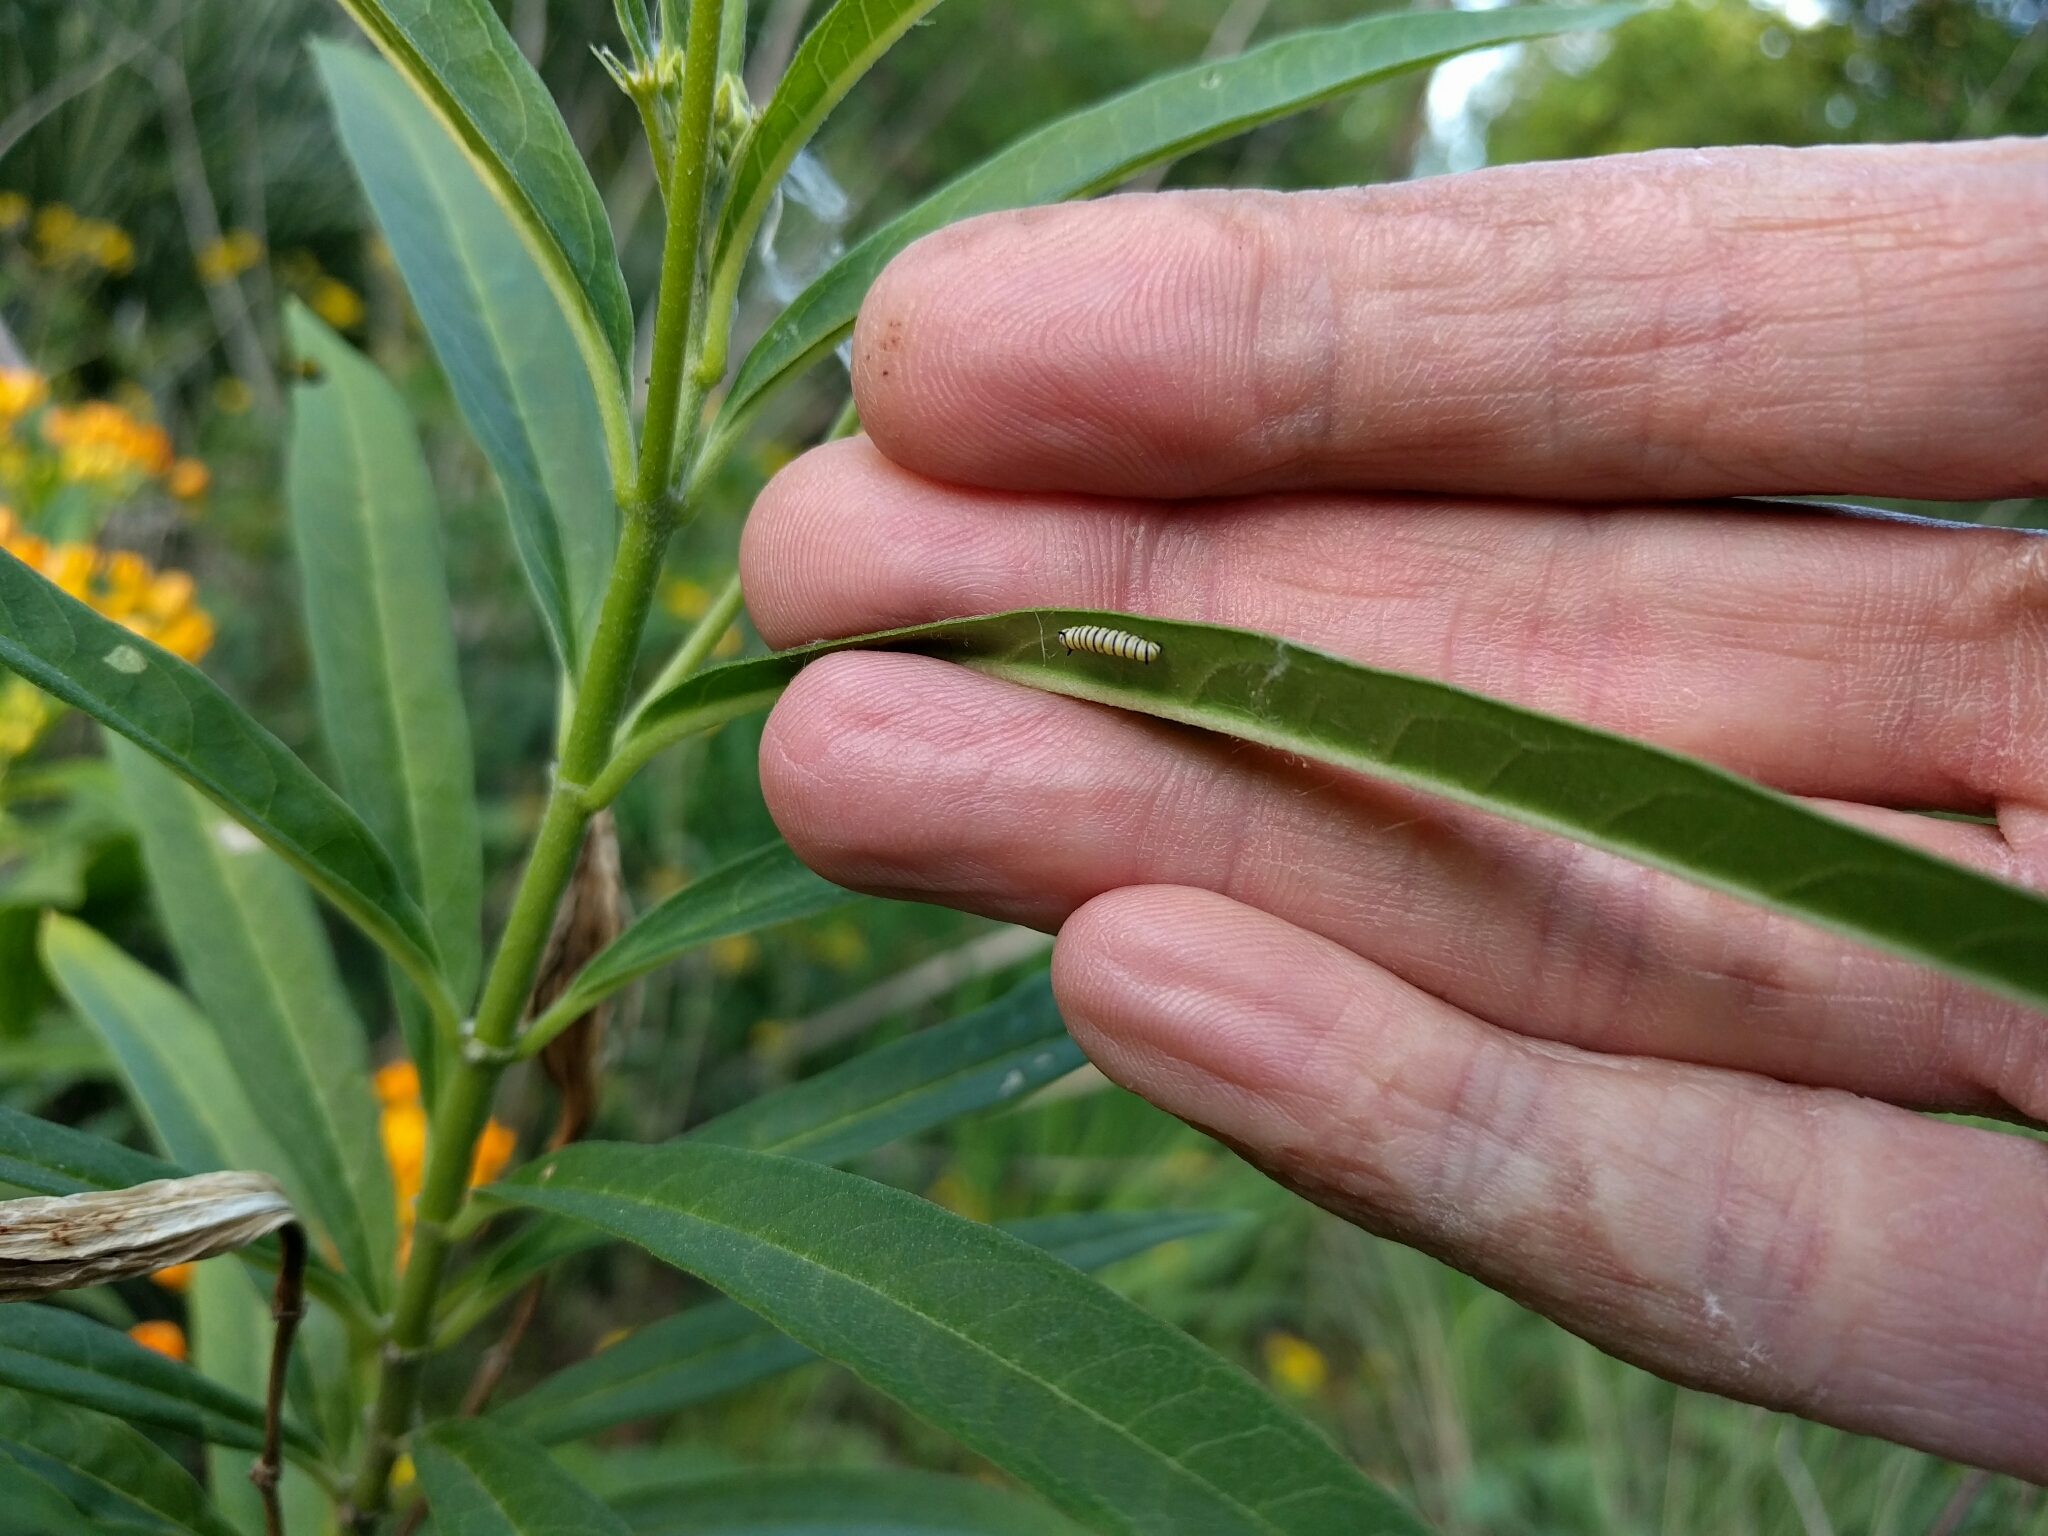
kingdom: Animalia
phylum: Arthropoda
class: Insecta
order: Lepidoptera
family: Nymphalidae
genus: Danaus
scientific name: Danaus plexippus
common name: Monarch
